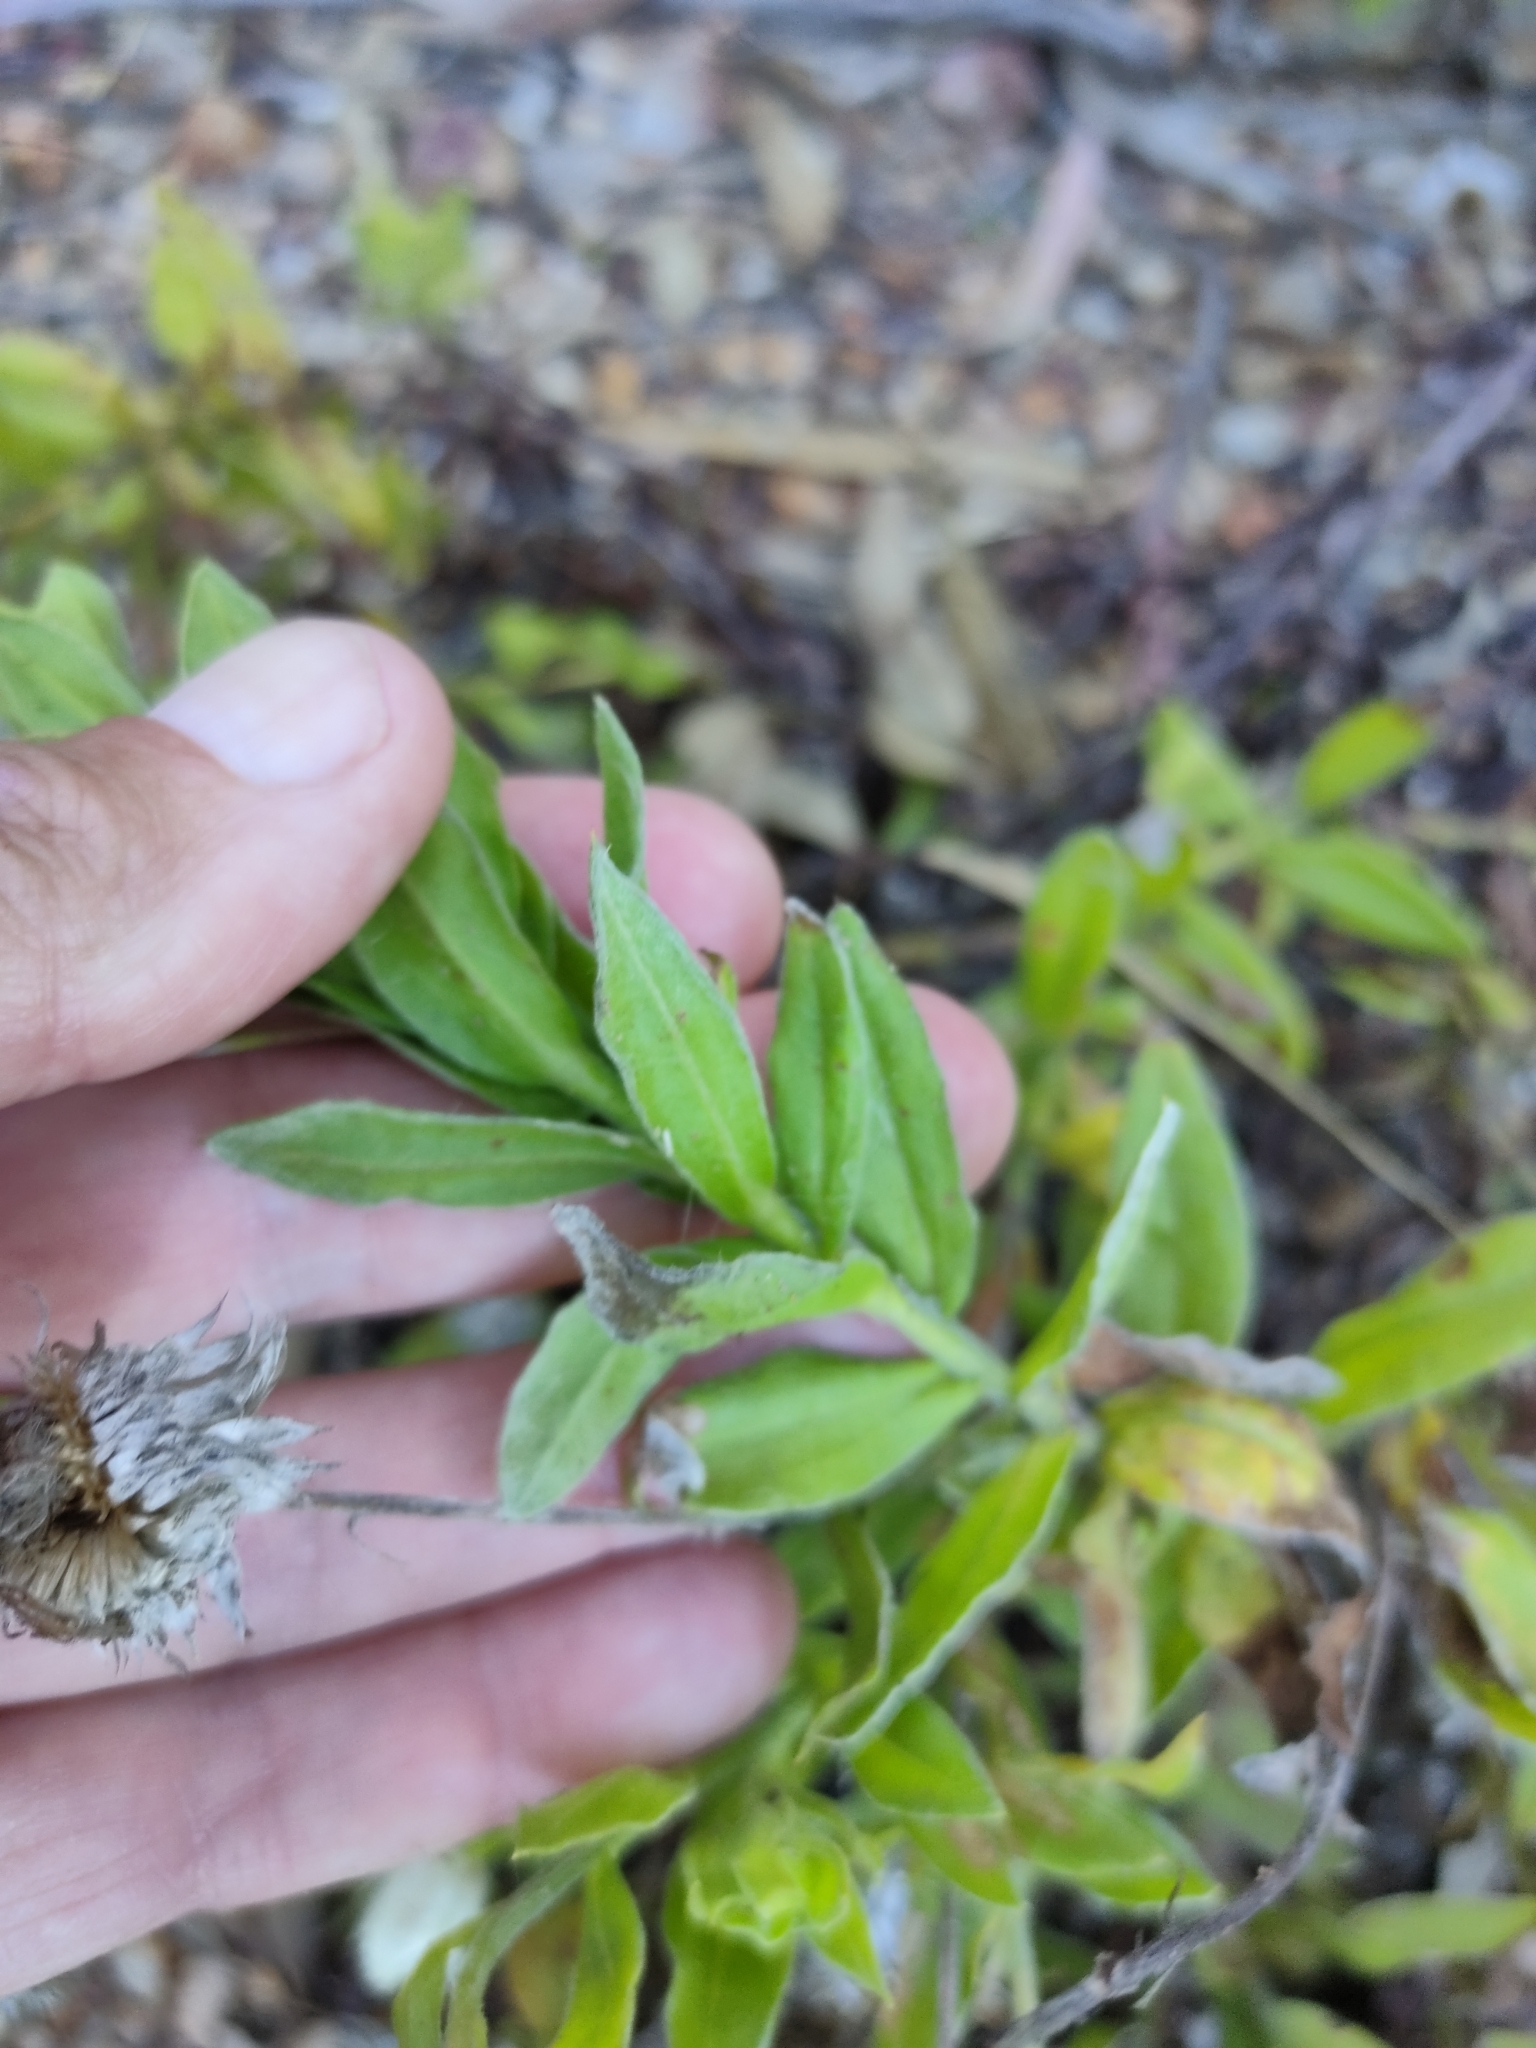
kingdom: Plantae
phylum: Tracheophyta
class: Magnoliopsida
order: Asterales
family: Asteraceae
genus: Coronidium
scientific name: Coronidium lanuginosum
